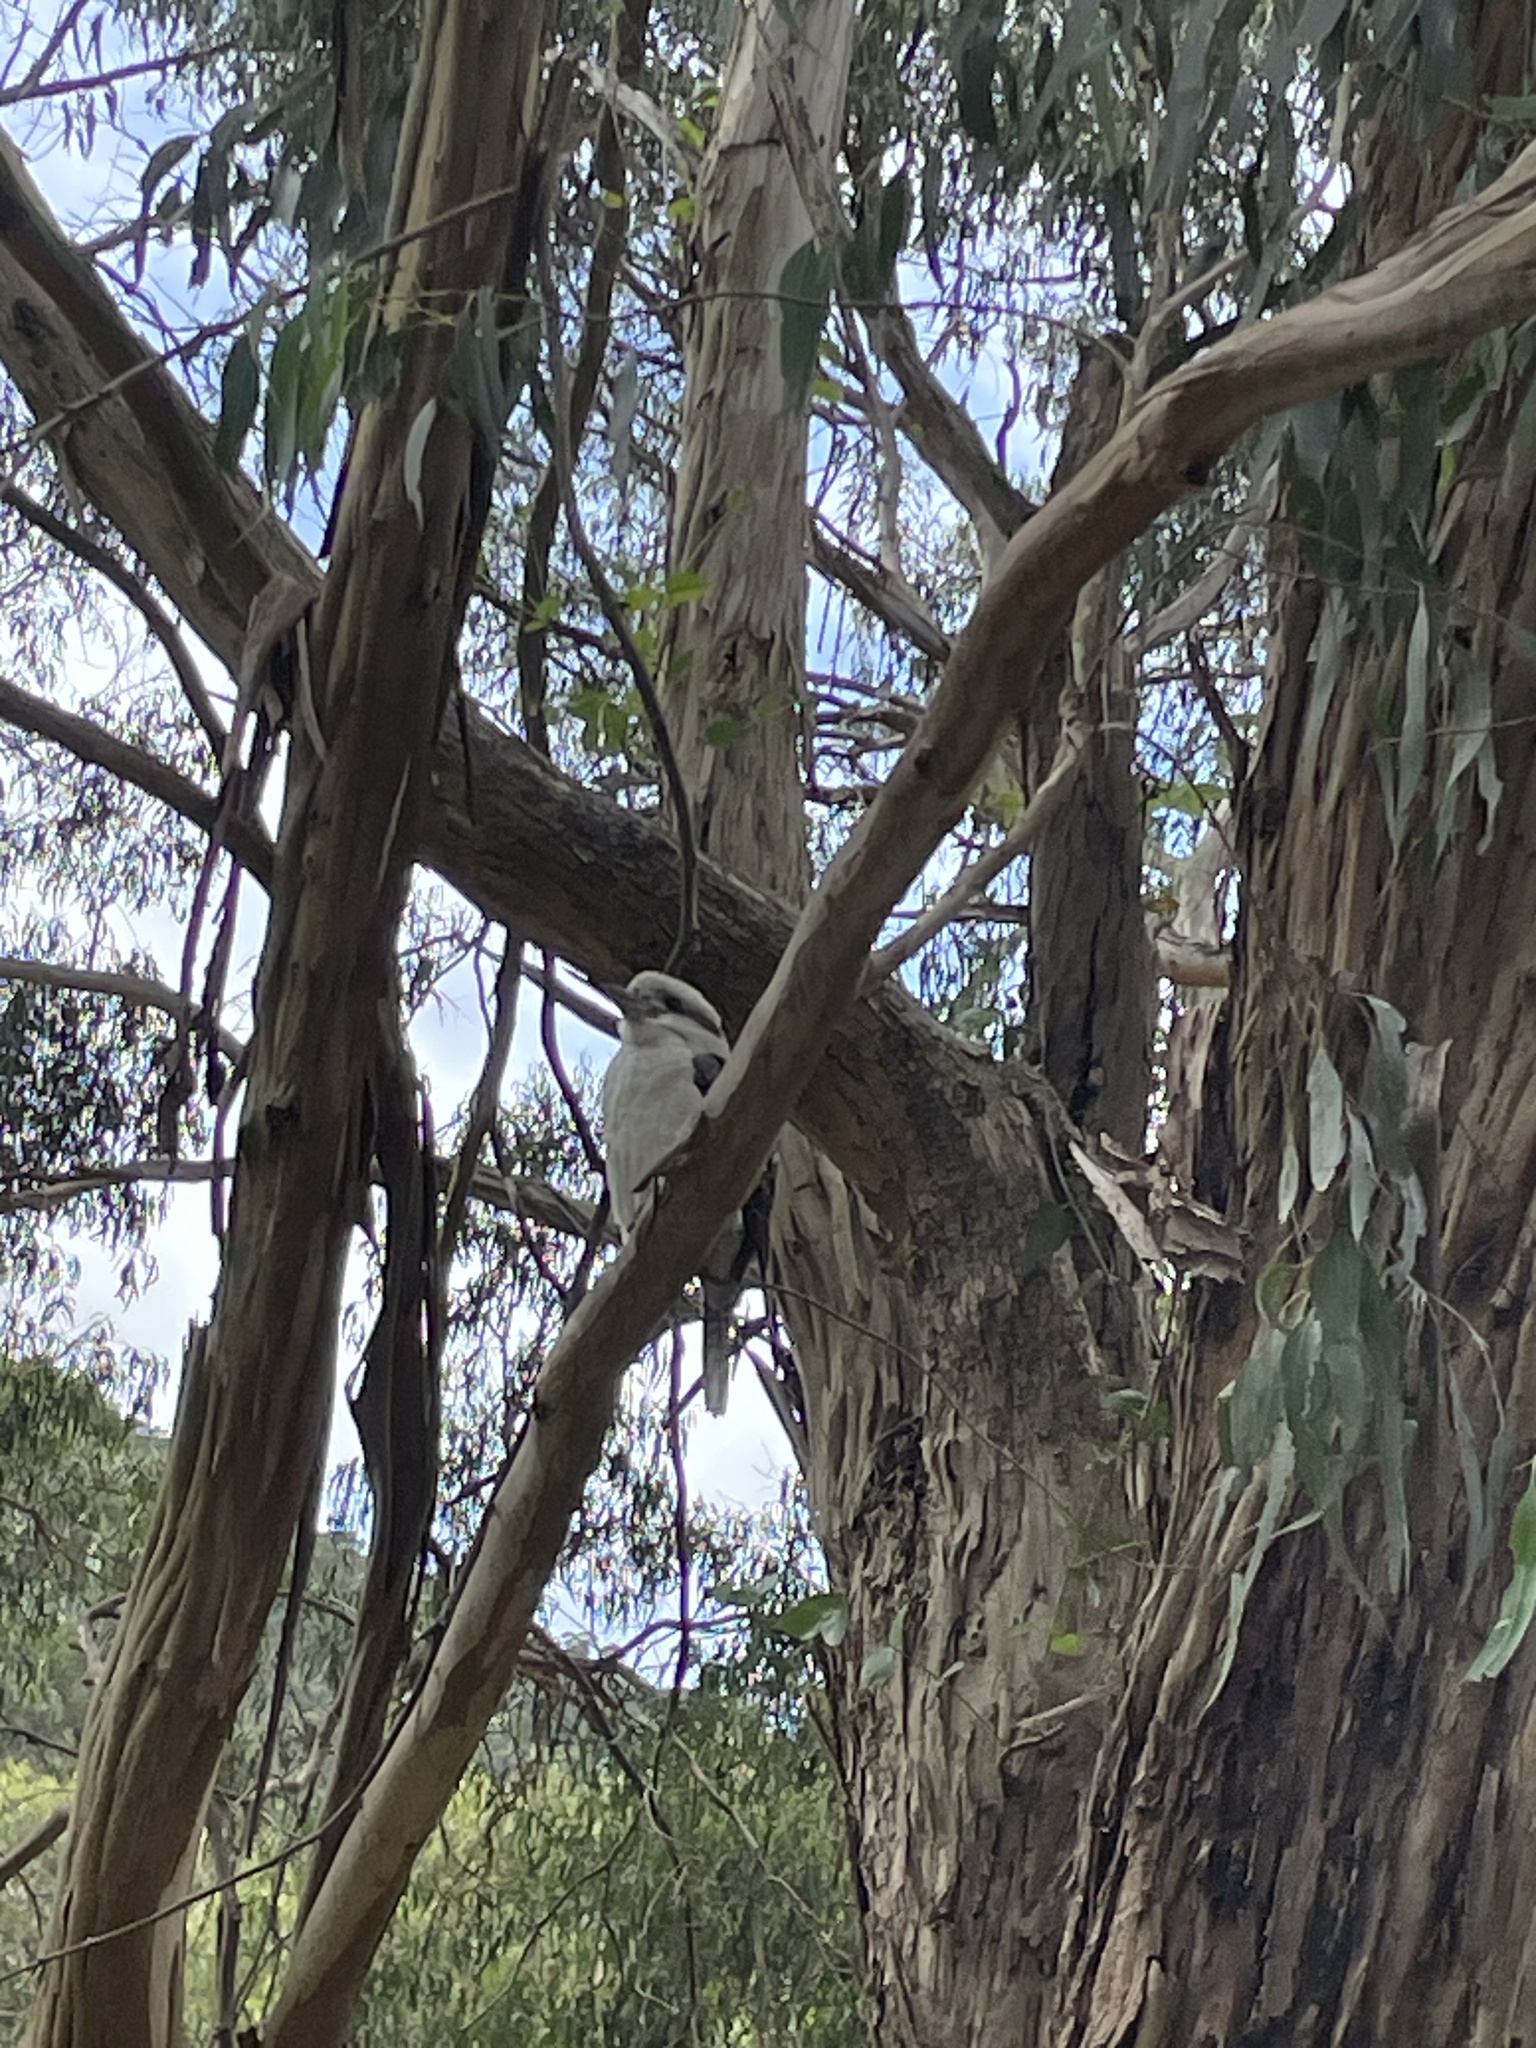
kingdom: Animalia
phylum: Chordata
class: Aves
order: Coraciiformes
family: Alcedinidae
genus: Dacelo
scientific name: Dacelo novaeguineae
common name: Laughing kookaburra
